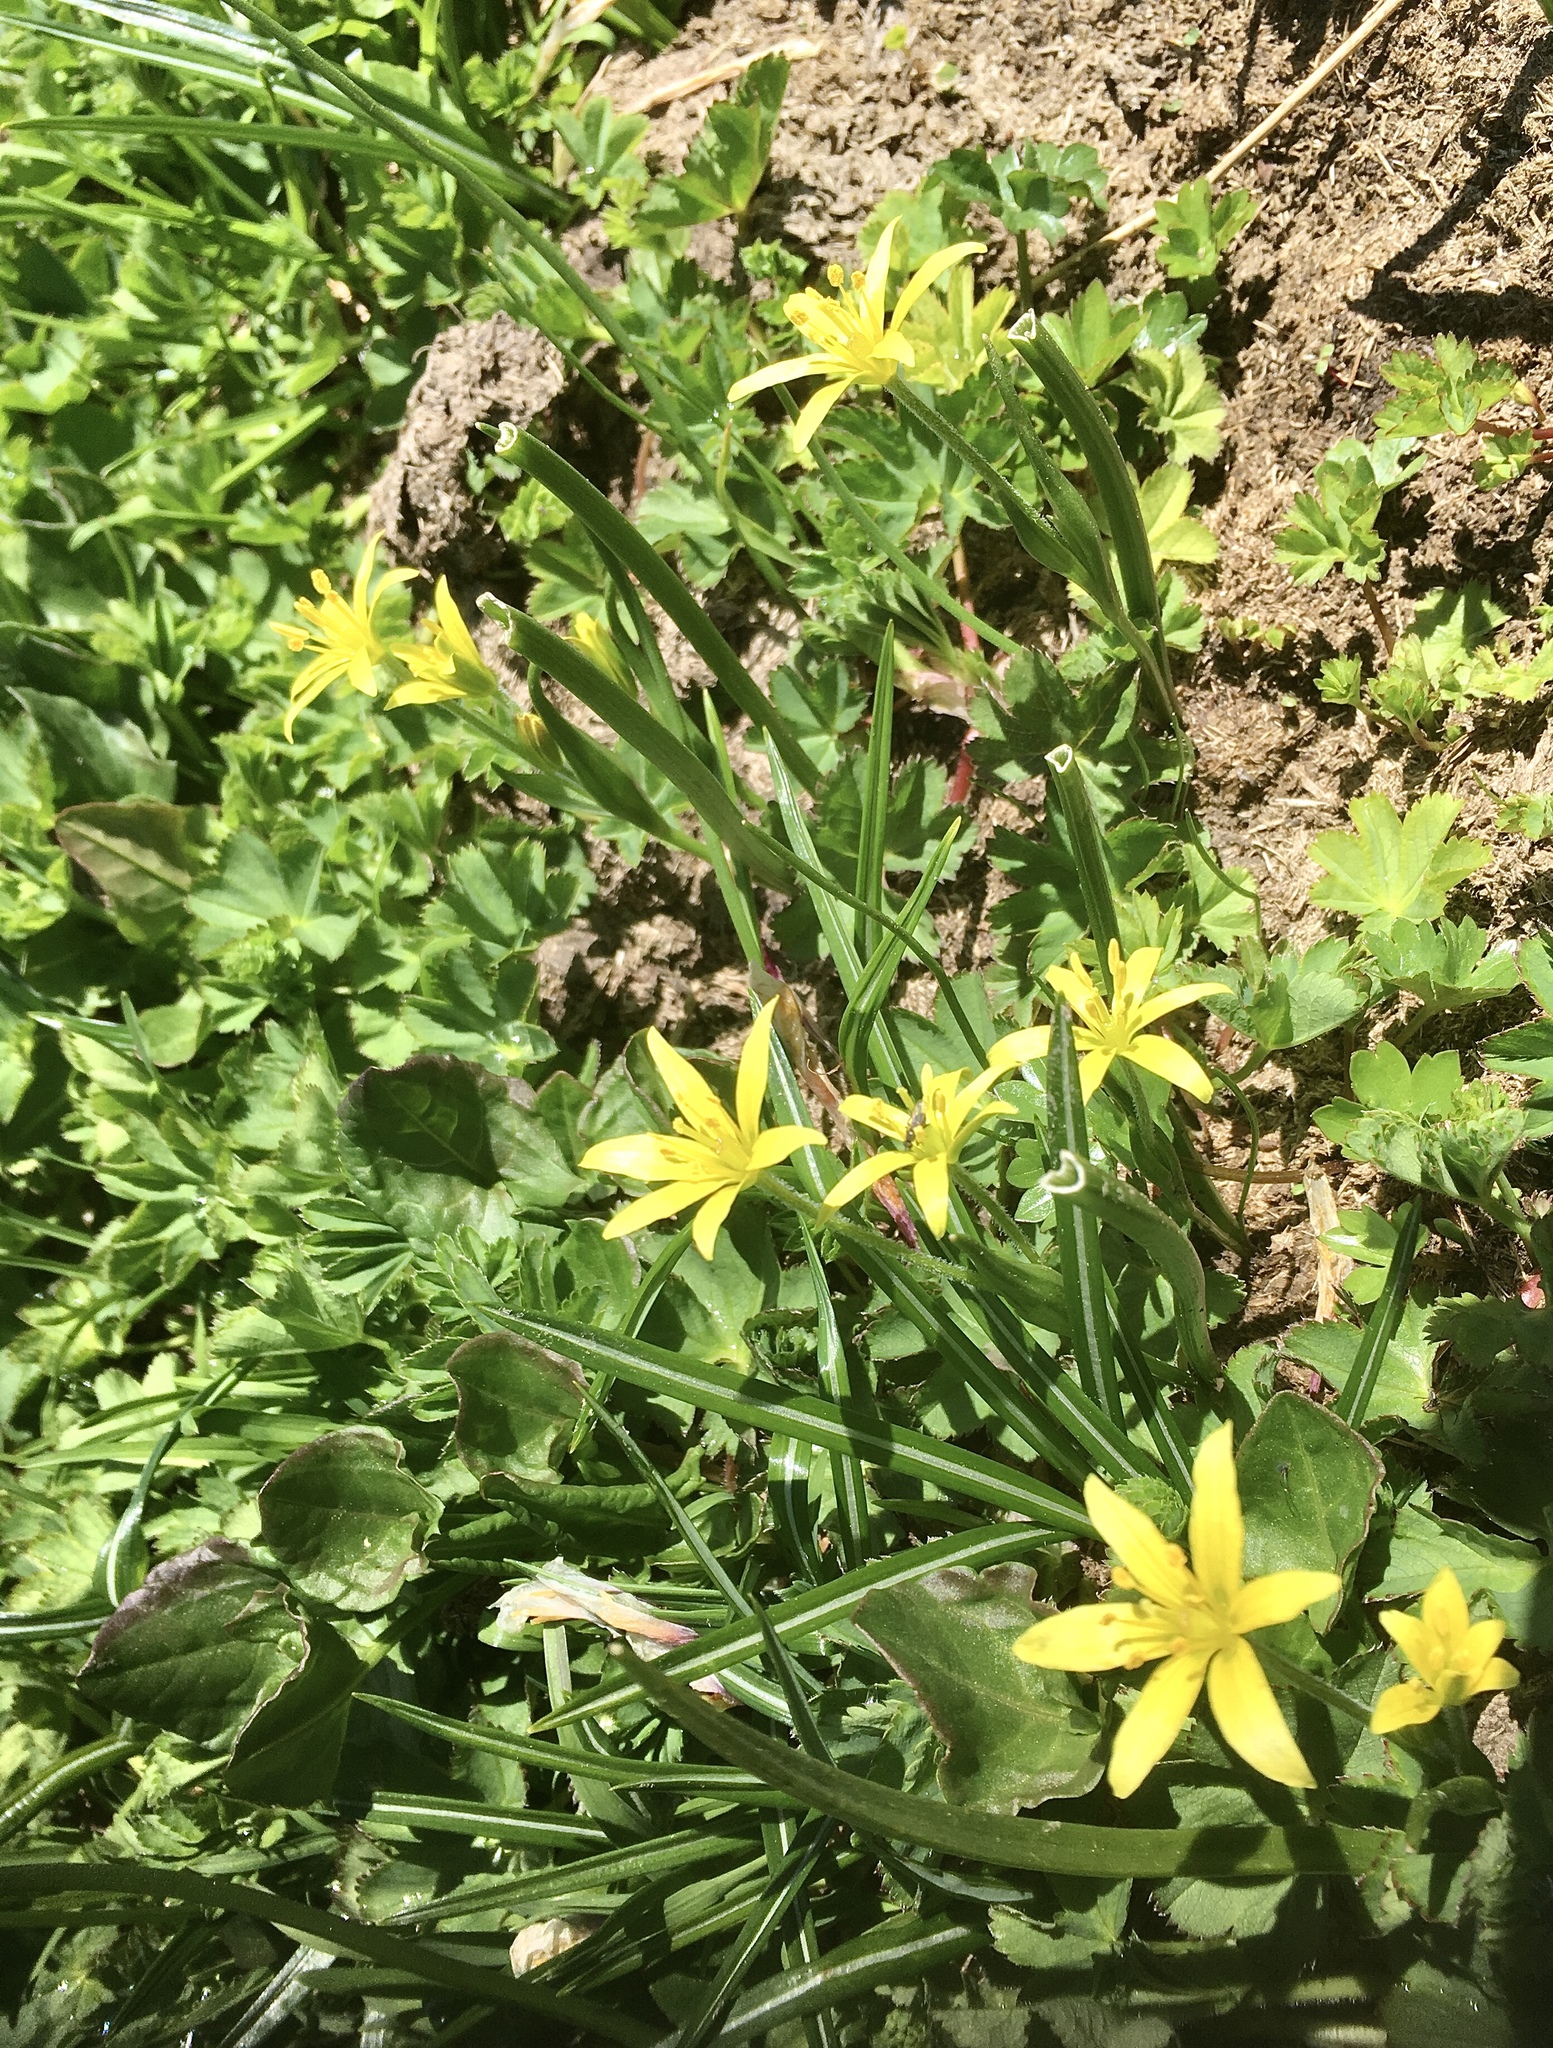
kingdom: Plantae
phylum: Tracheophyta
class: Liliopsida
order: Liliales
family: Liliaceae
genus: Gagea
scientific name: Gagea fragifera
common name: Lily
